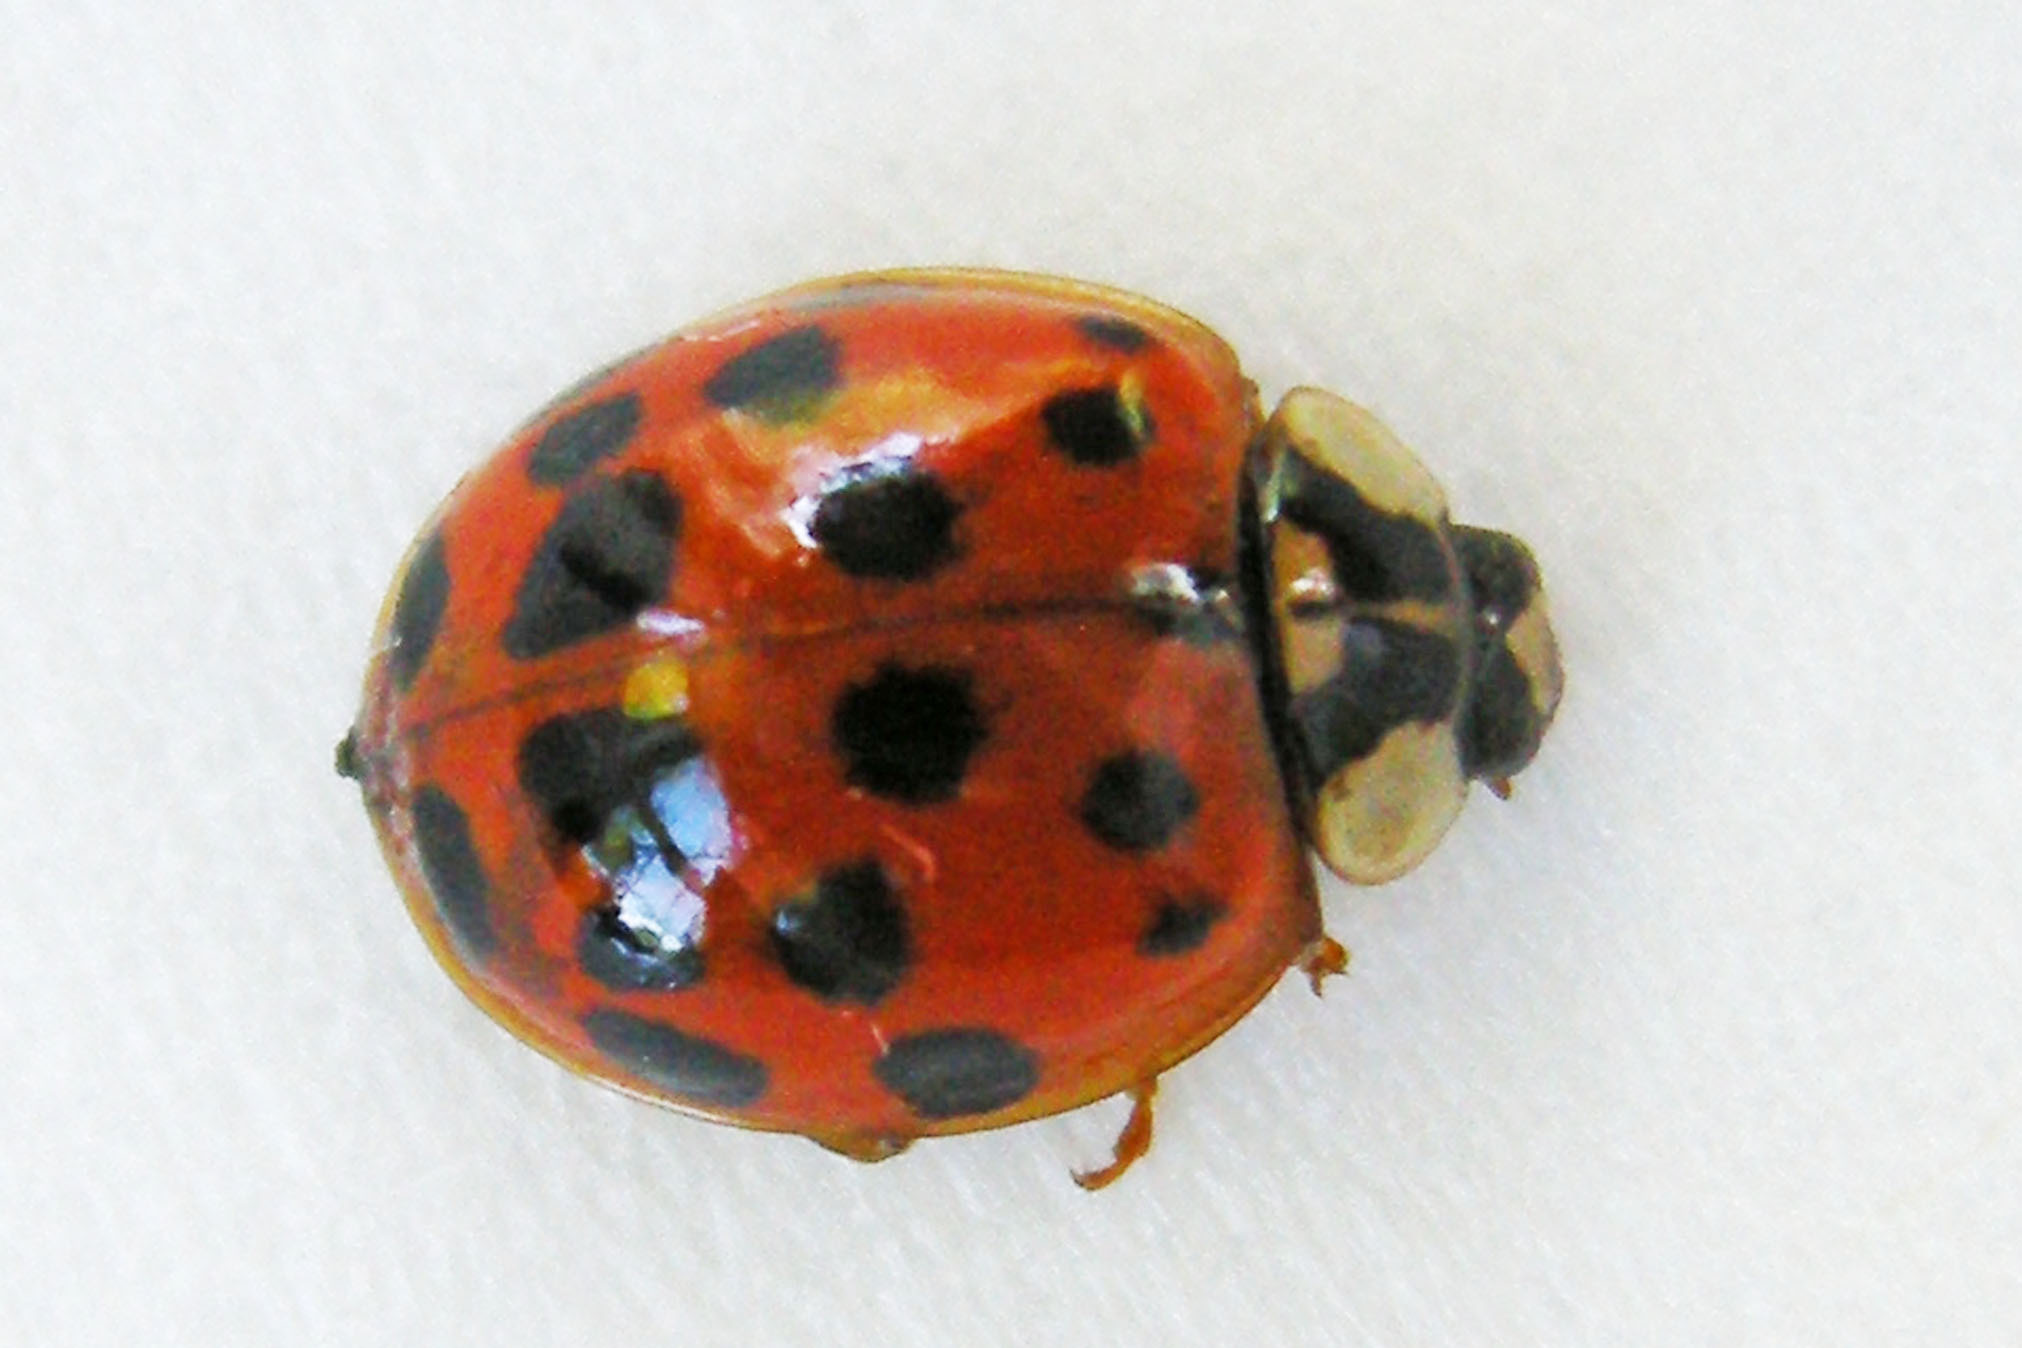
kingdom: Animalia
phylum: Arthropoda
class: Insecta
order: Coleoptera
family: Coccinellidae
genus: Harmonia
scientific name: Harmonia axyridis
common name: Harlequin ladybird
